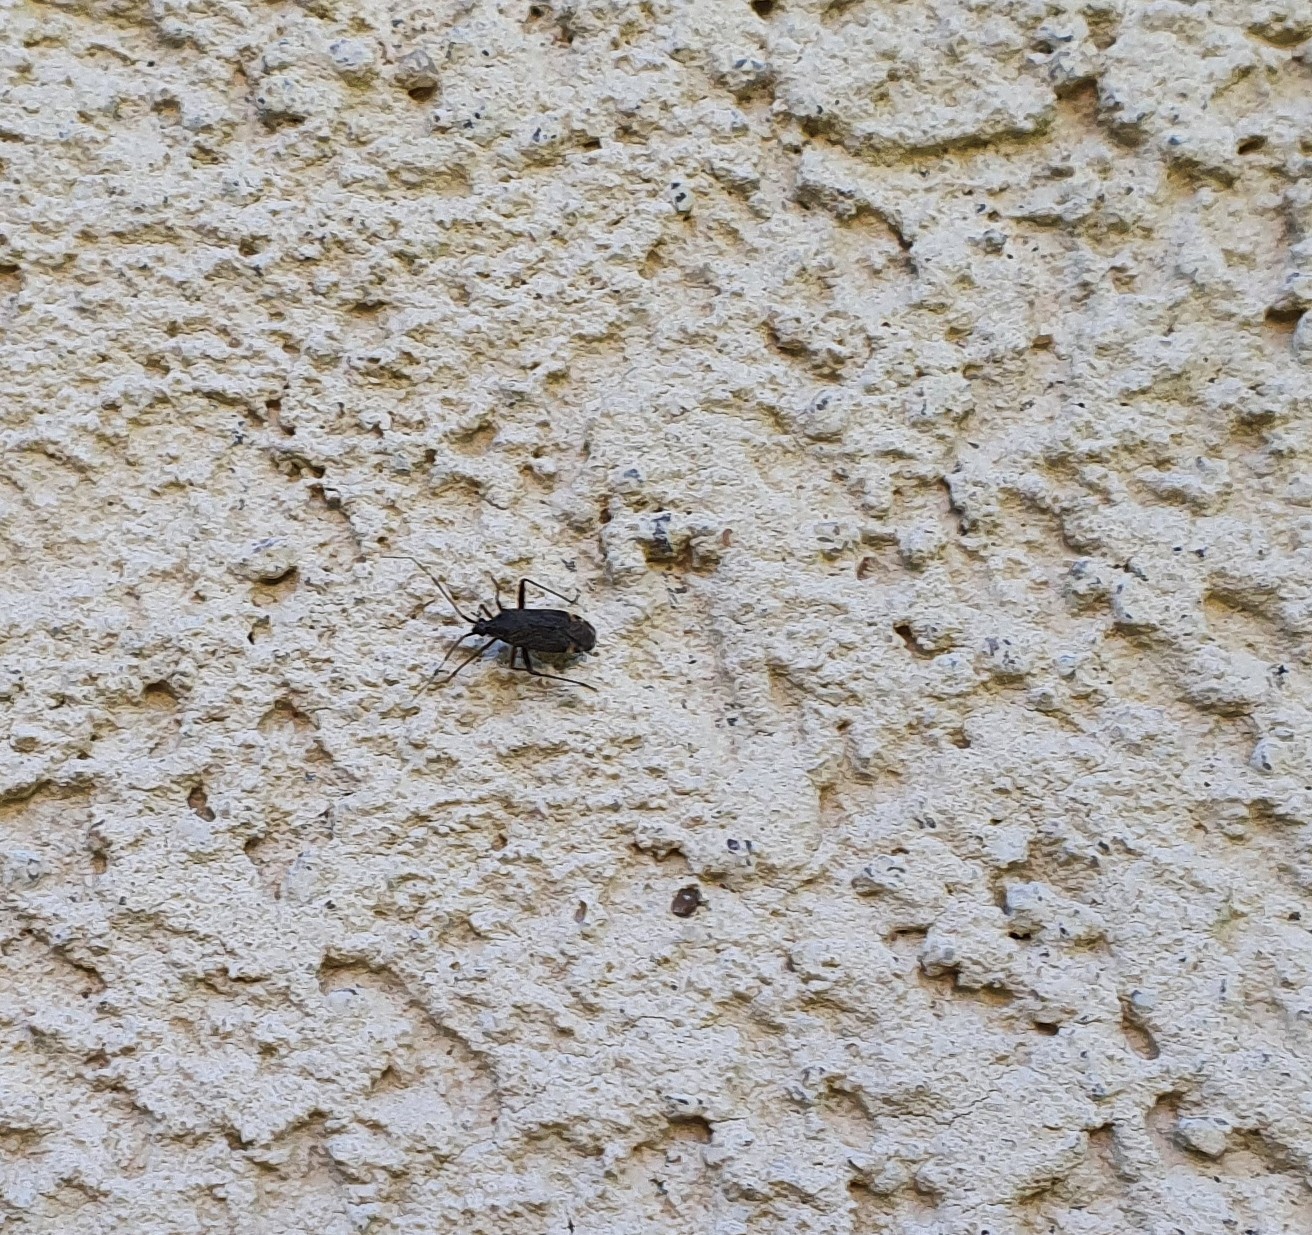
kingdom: Animalia
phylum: Arthropoda
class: Insecta
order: Hemiptera
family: Miridae
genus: Closterotomus
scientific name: Closterotomus fulvomaculatus
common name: Spotted plant bug
